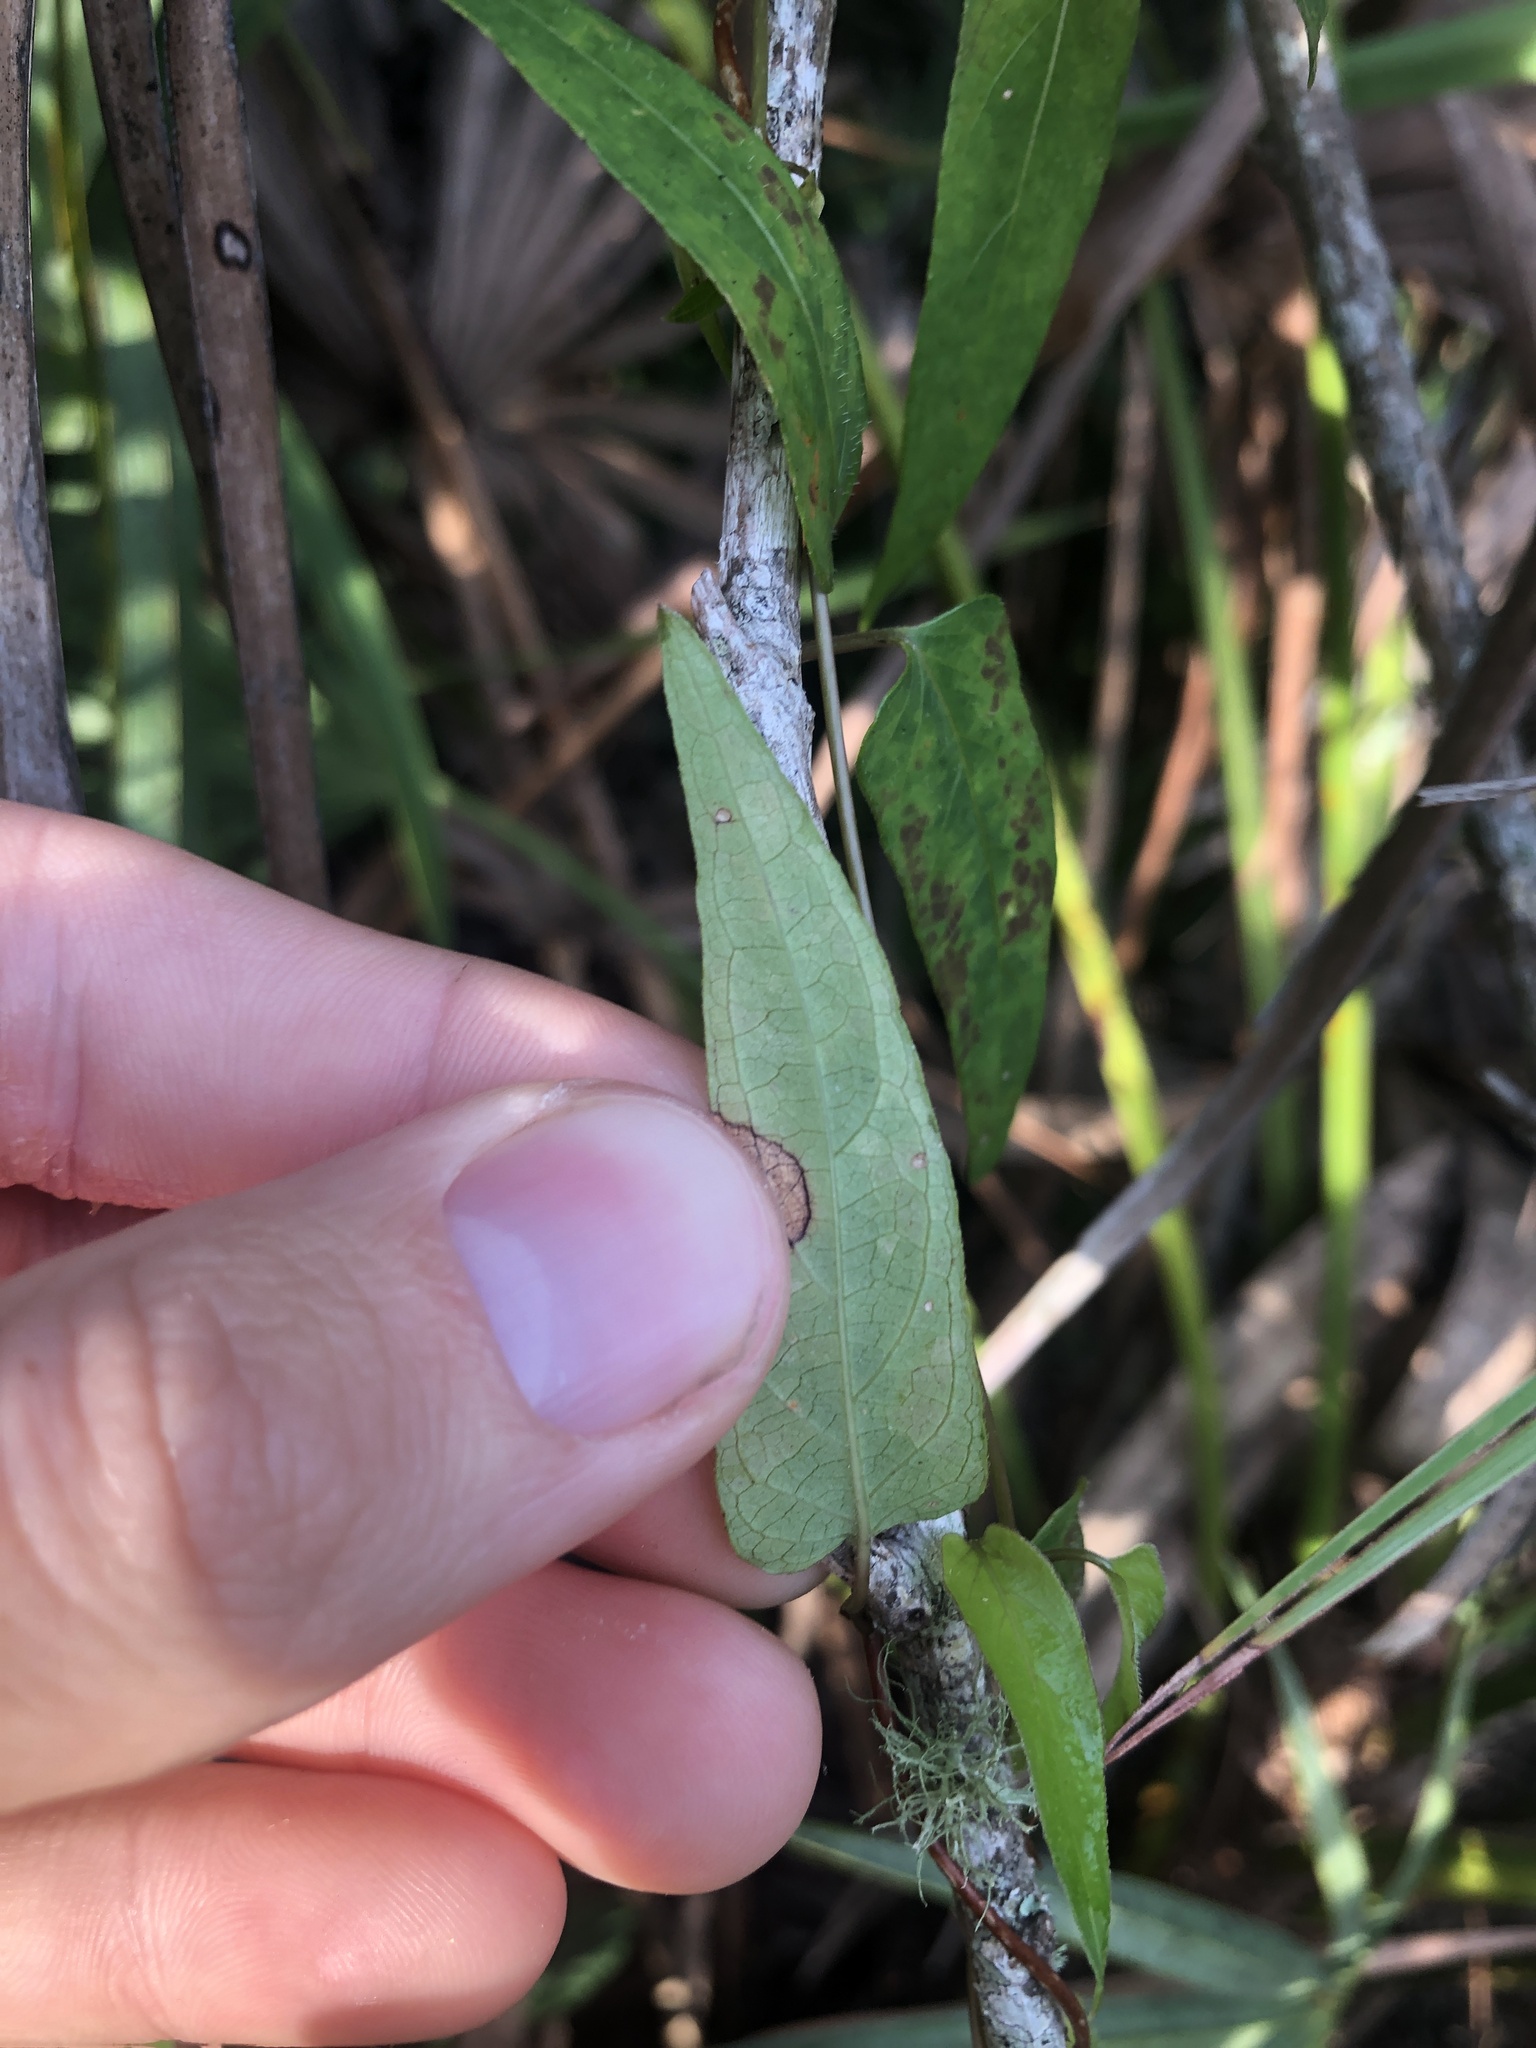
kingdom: Plantae
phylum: Tracheophyta
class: Magnoliopsida
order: Gentianales
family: Rubiaceae
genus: Paederia
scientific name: Paederia foetida
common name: Stinkvine
